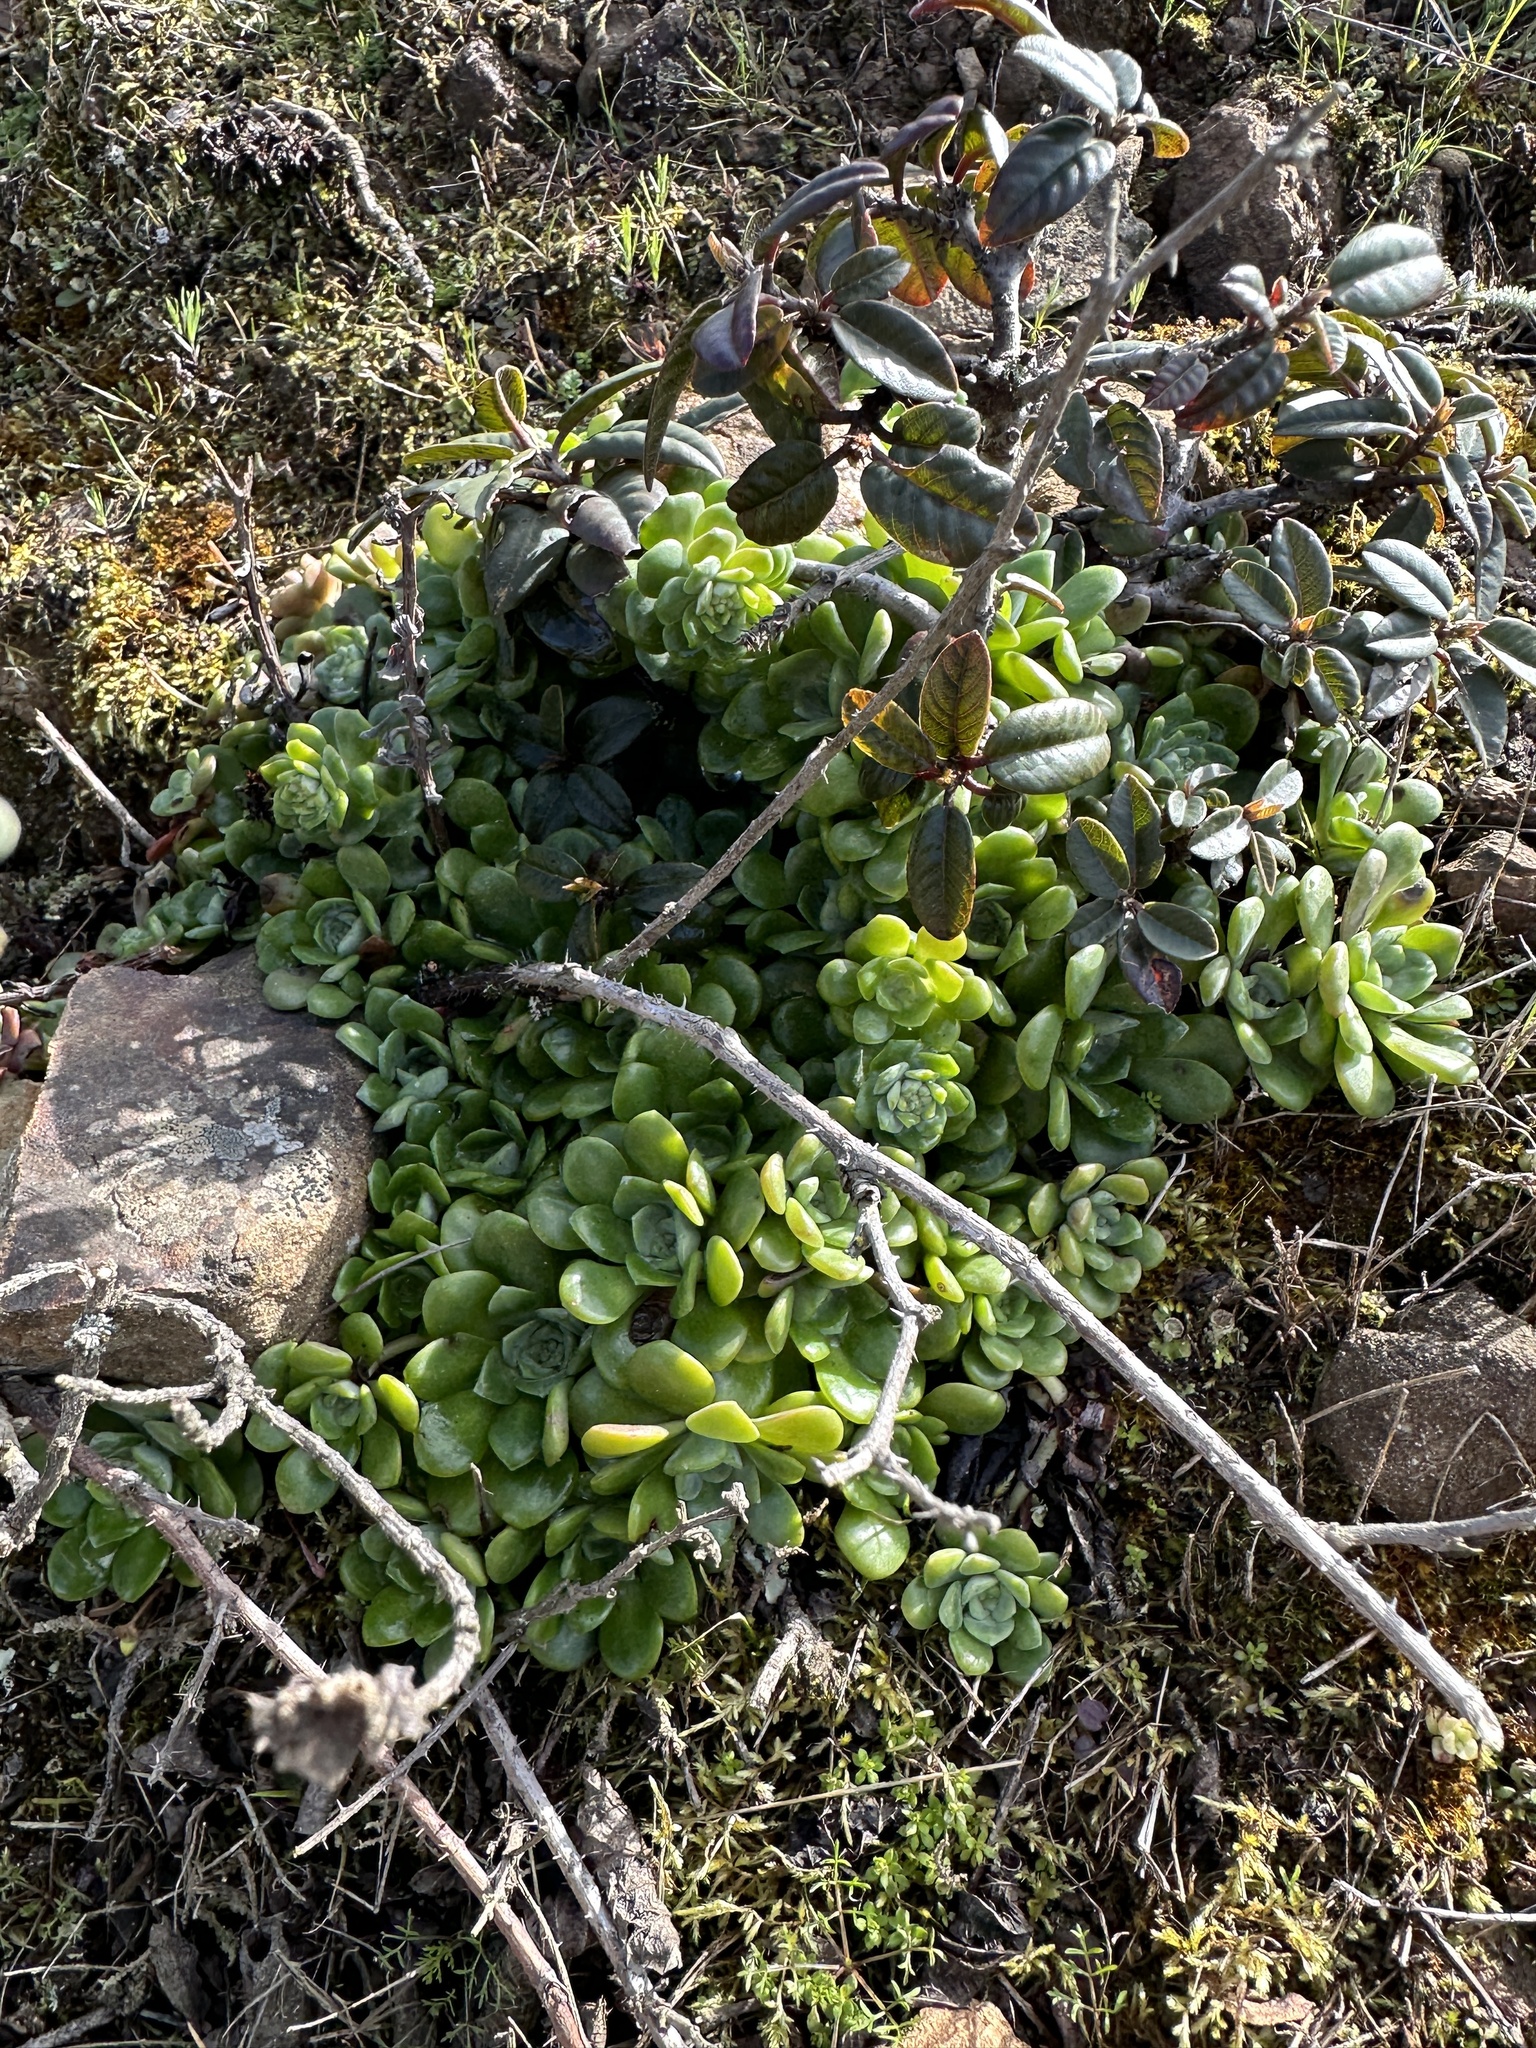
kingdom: Plantae
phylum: Tracheophyta
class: Magnoliopsida
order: Saxifragales
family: Crassulaceae
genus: Sedum
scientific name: Sedum spathulifolium
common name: Colorado stonecrop
